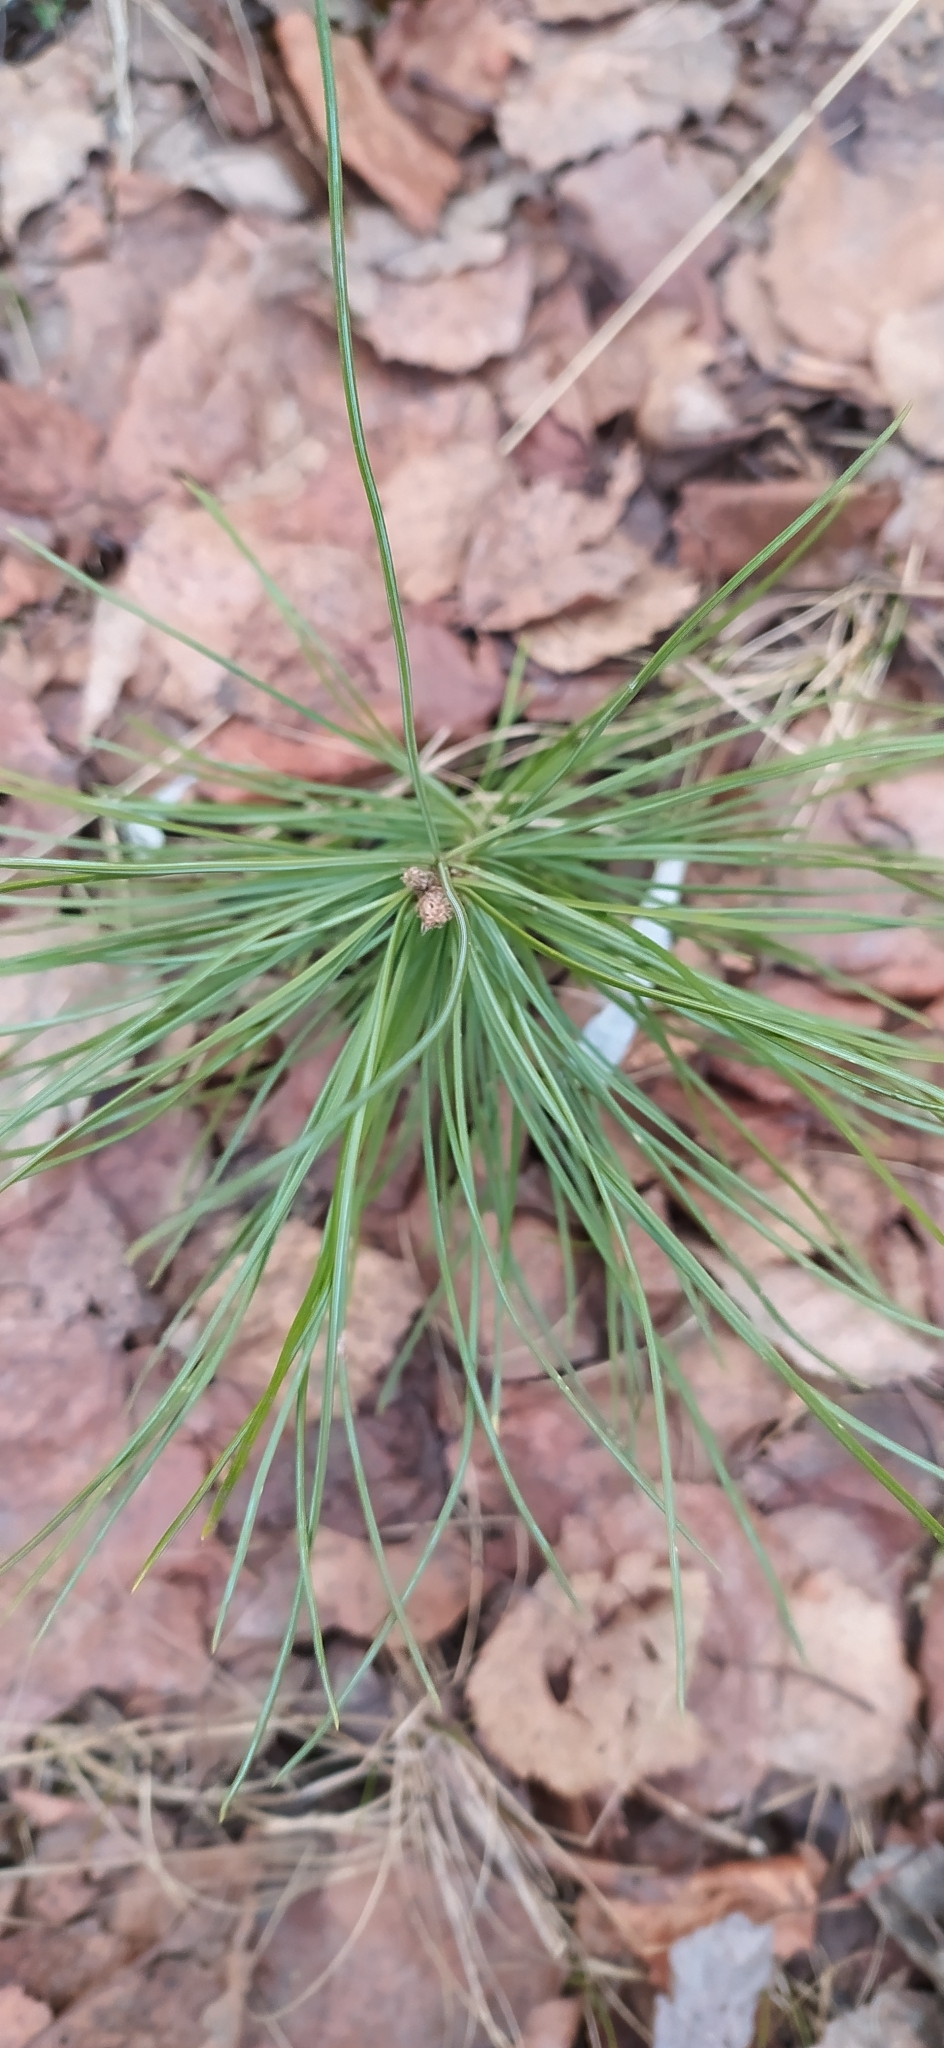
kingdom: Plantae
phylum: Tracheophyta
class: Pinopsida
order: Pinales
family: Pinaceae
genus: Pinus
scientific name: Pinus sibirica
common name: Siberian pine
